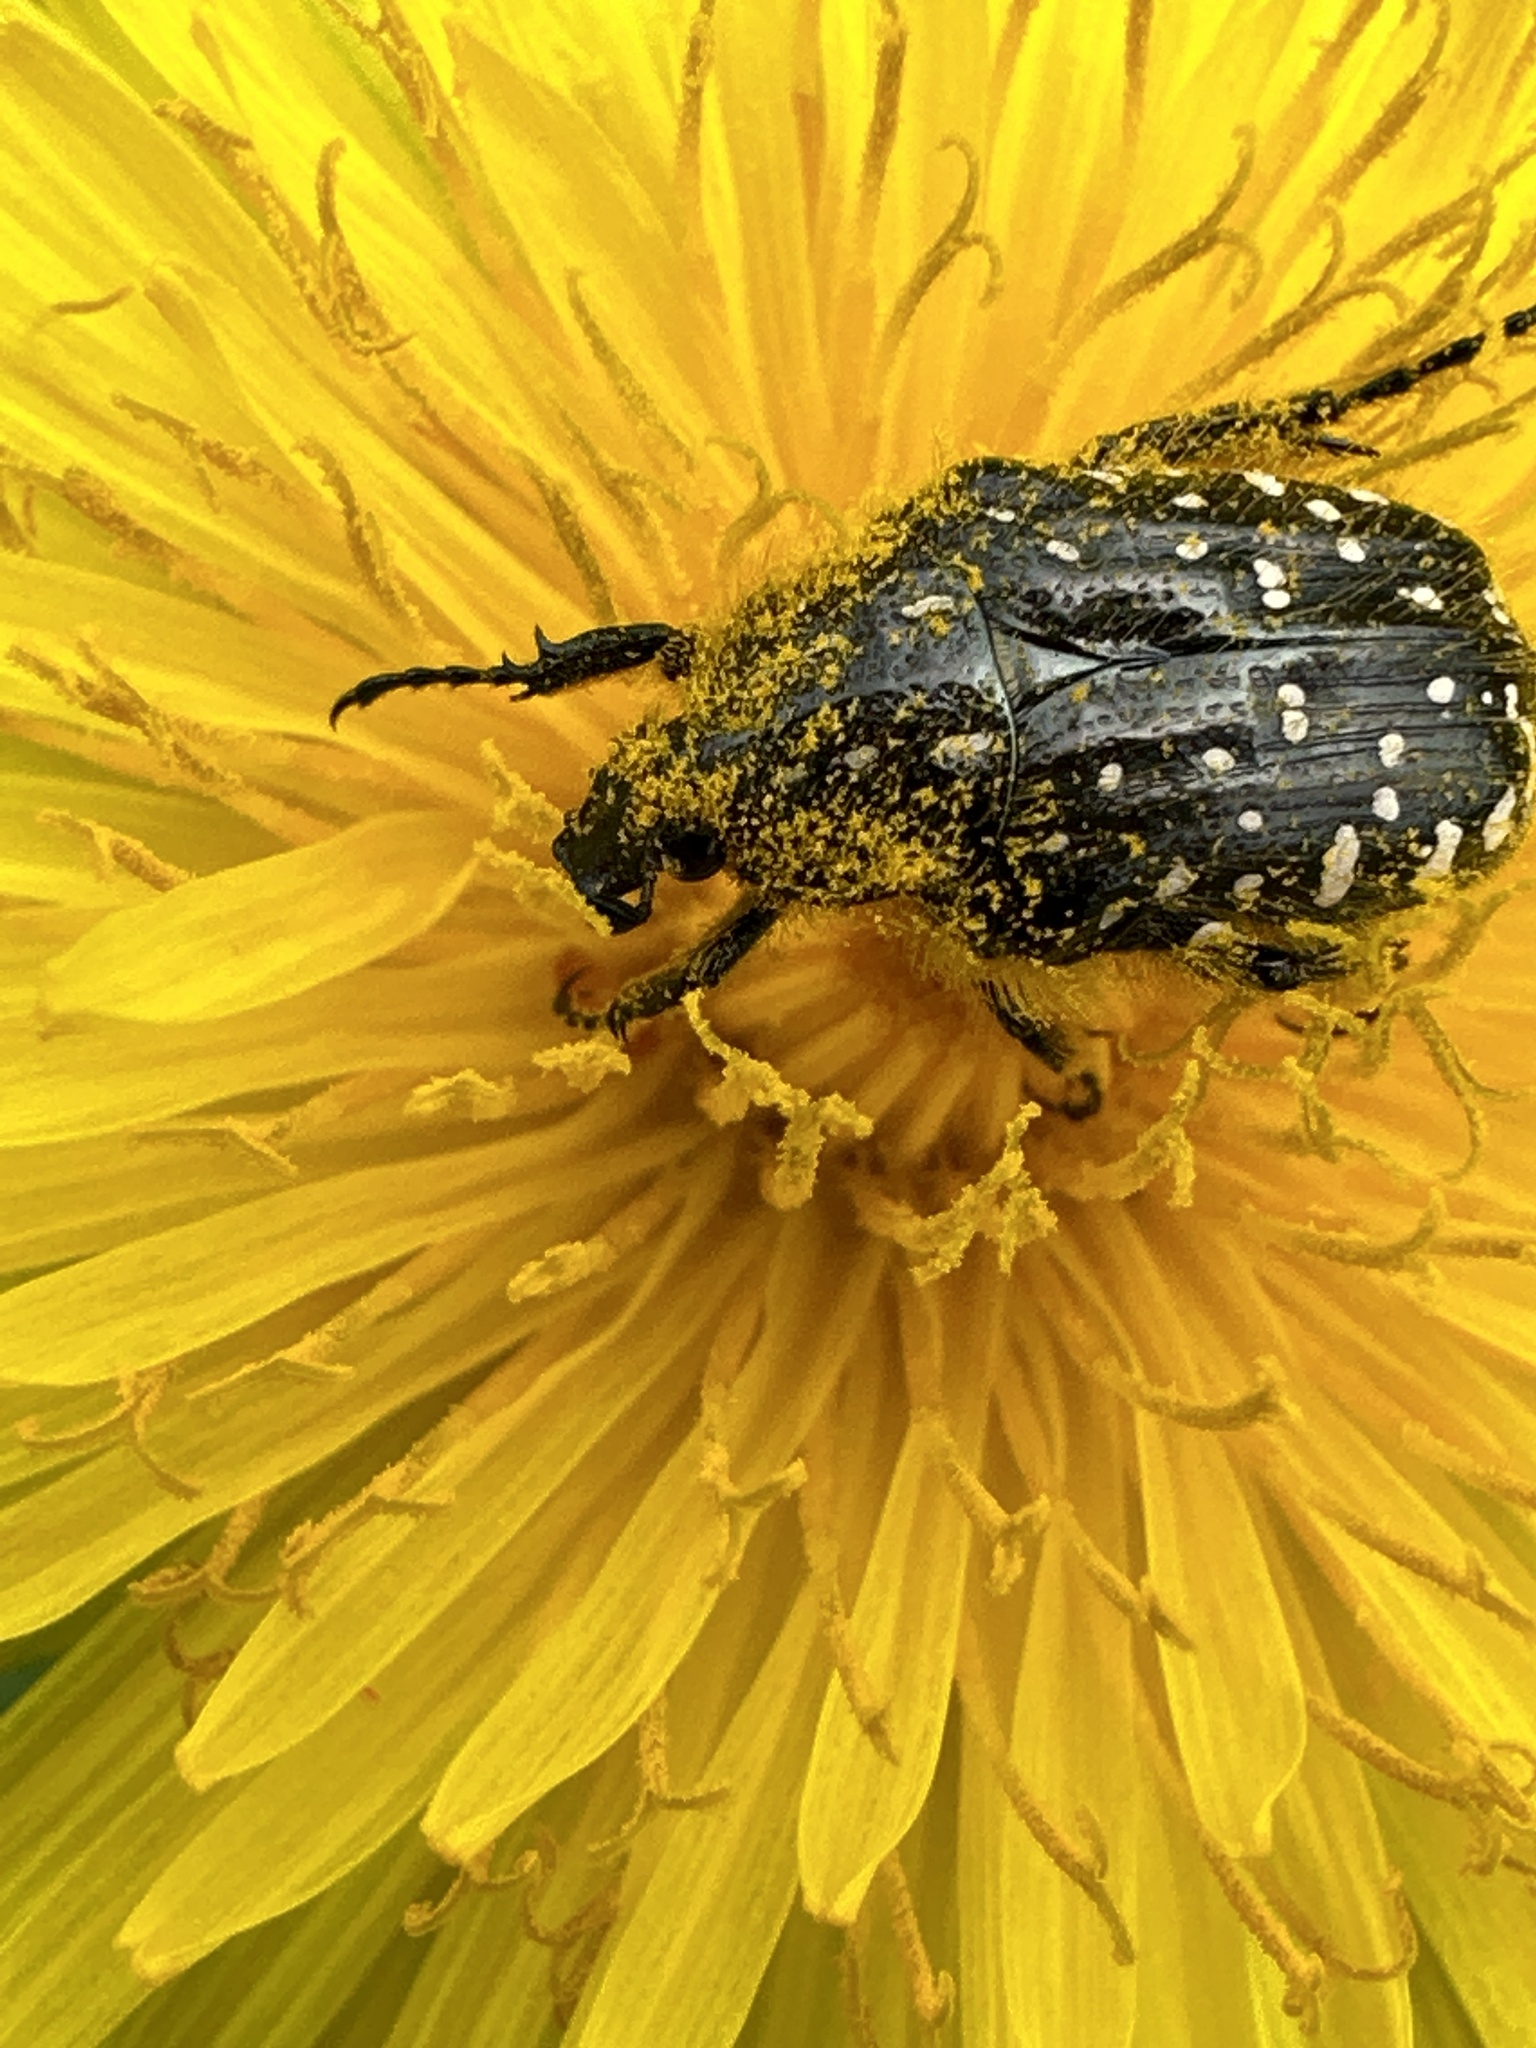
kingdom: Animalia
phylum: Arthropoda
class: Insecta
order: Coleoptera
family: Scarabaeidae
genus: Oxythyrea
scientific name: Oxythyrea funesta
